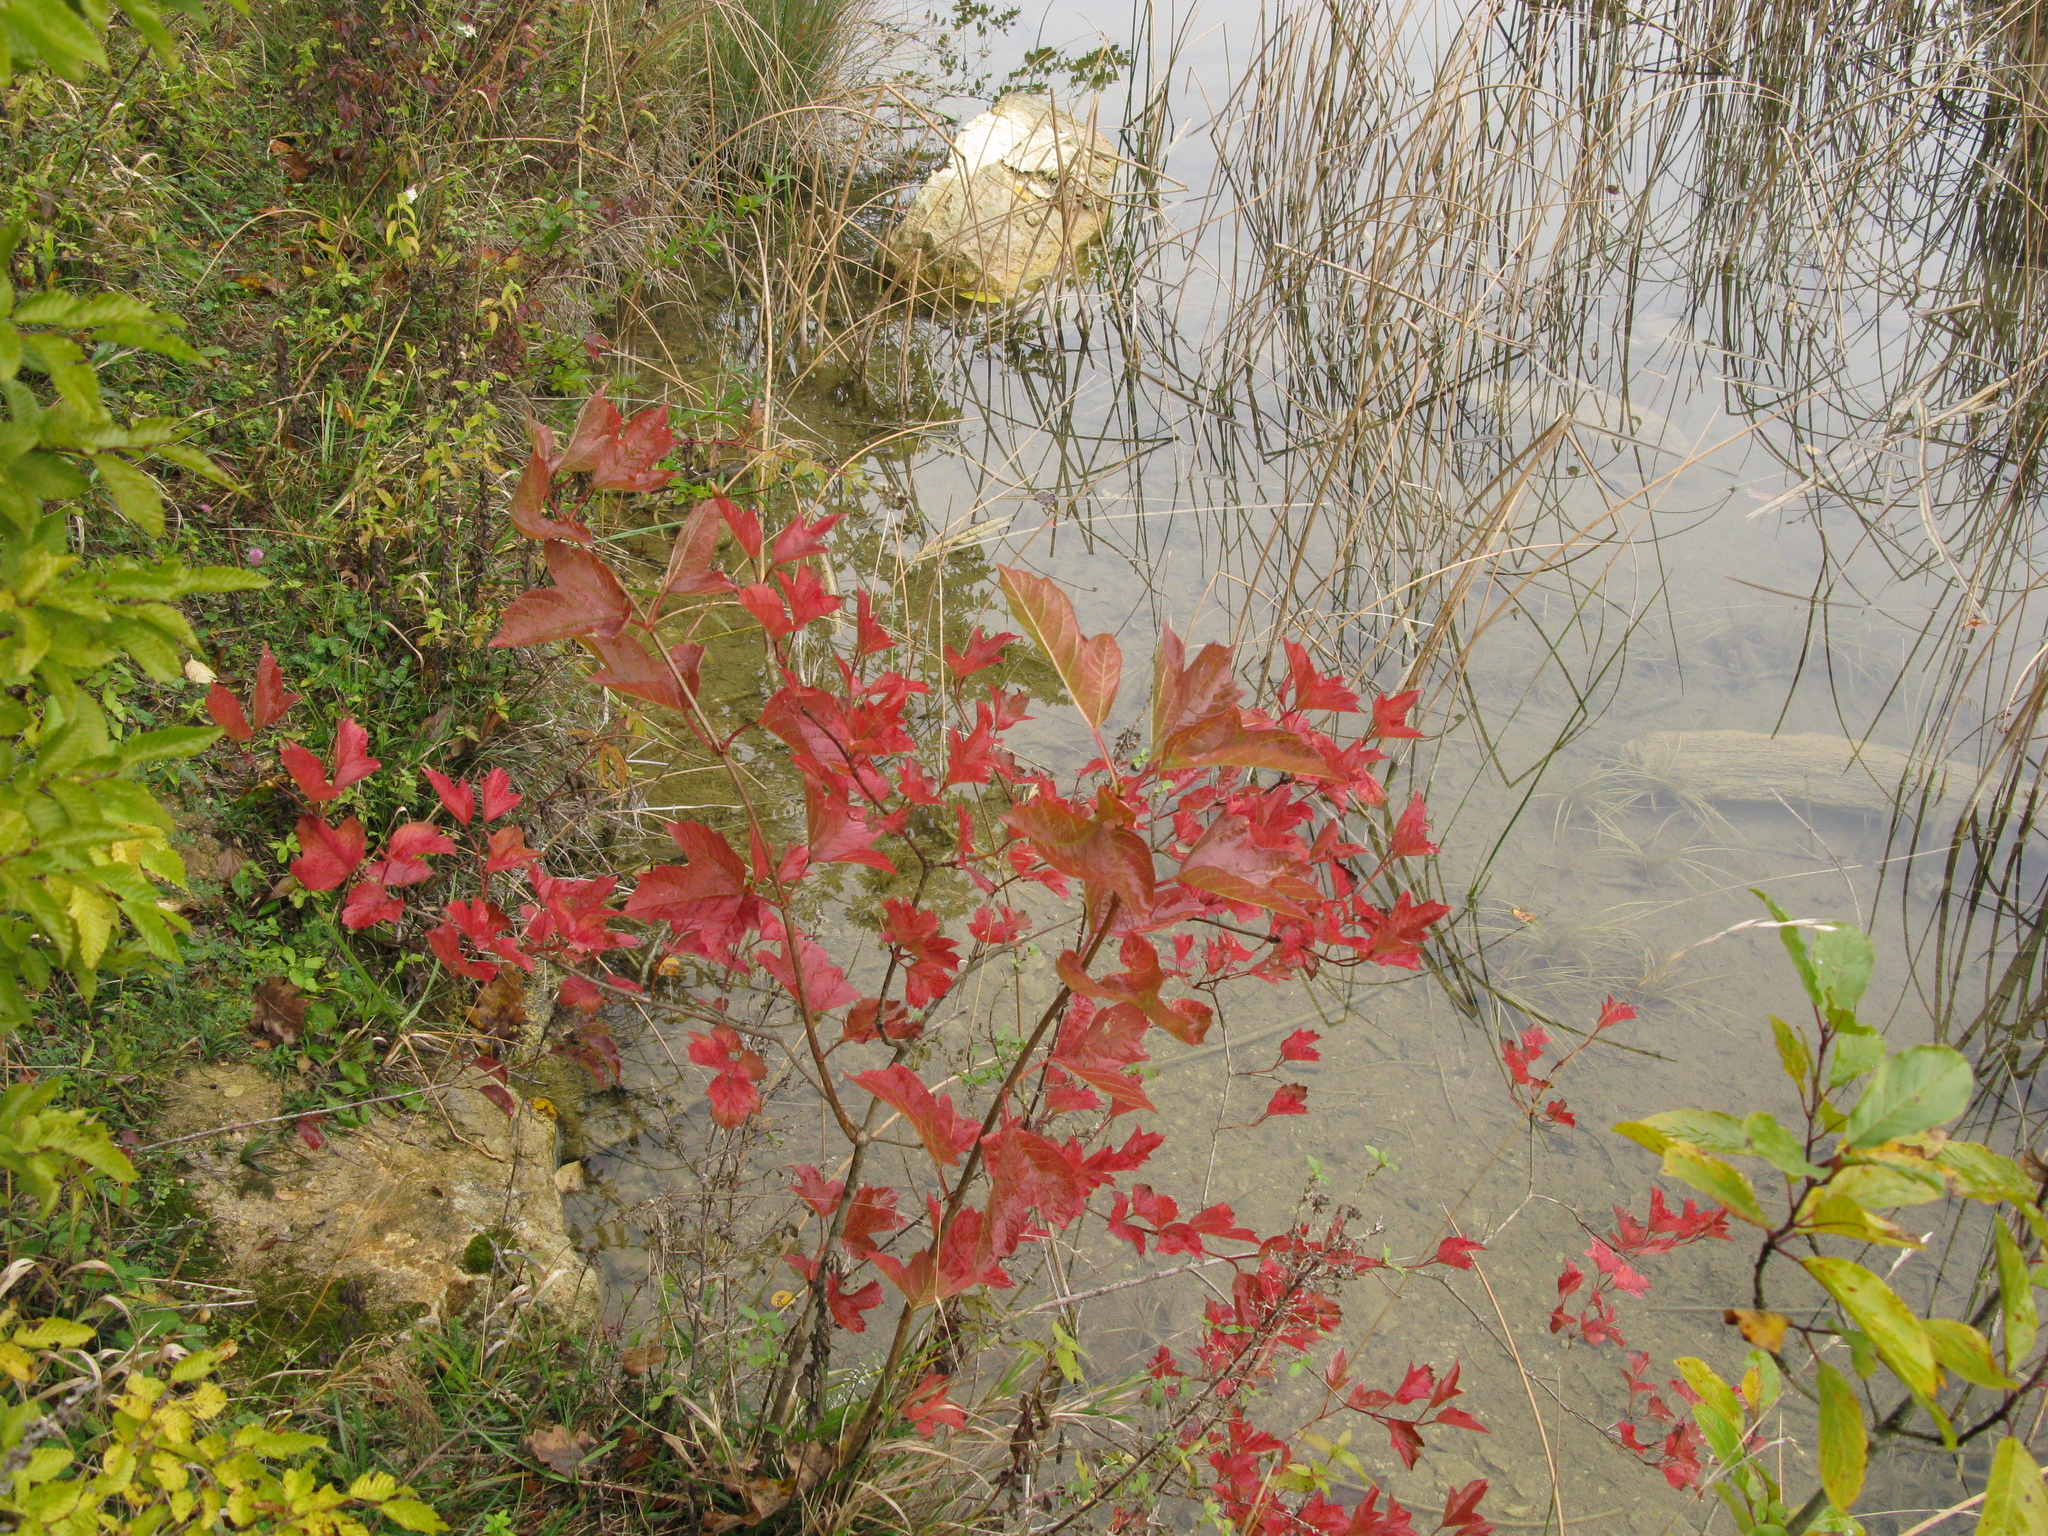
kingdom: Plantae
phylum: Tracheophyta
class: Magnoliopsida
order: Dipsacales
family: Viburnaceae
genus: Viburnum
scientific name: Viburnum opulus
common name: Guelder-rose
